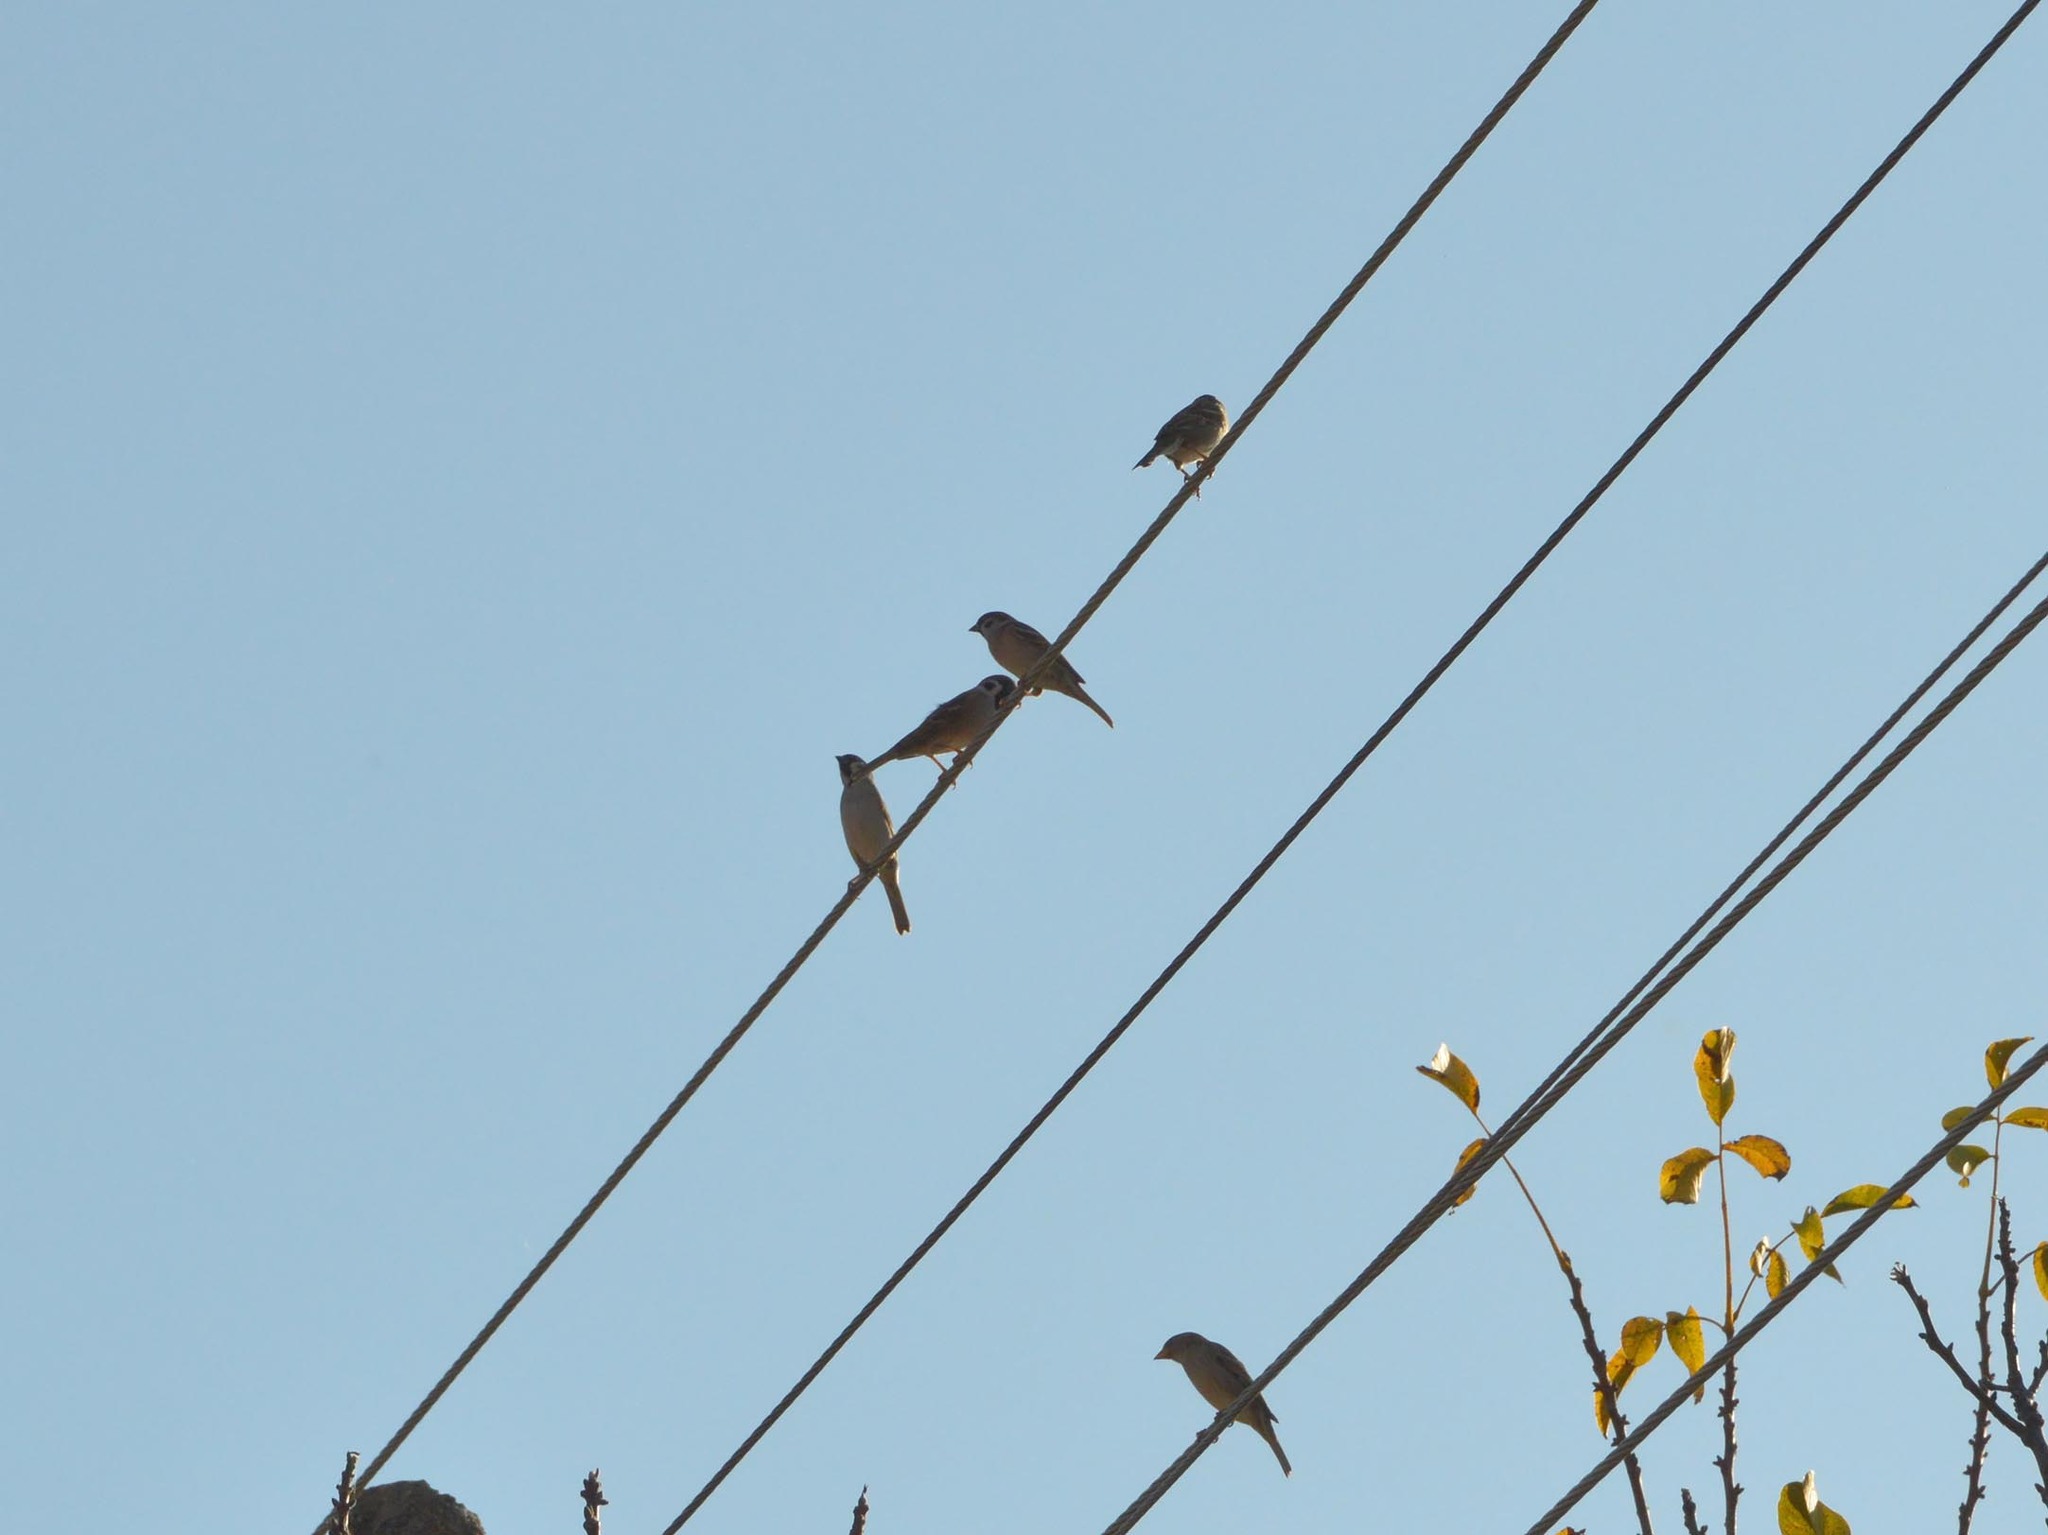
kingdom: Animalia
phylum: Chordata
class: Aves
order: Passeriformes
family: Passeridae
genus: Passer
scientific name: Passer montanus
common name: Eurasian tree sparrow
